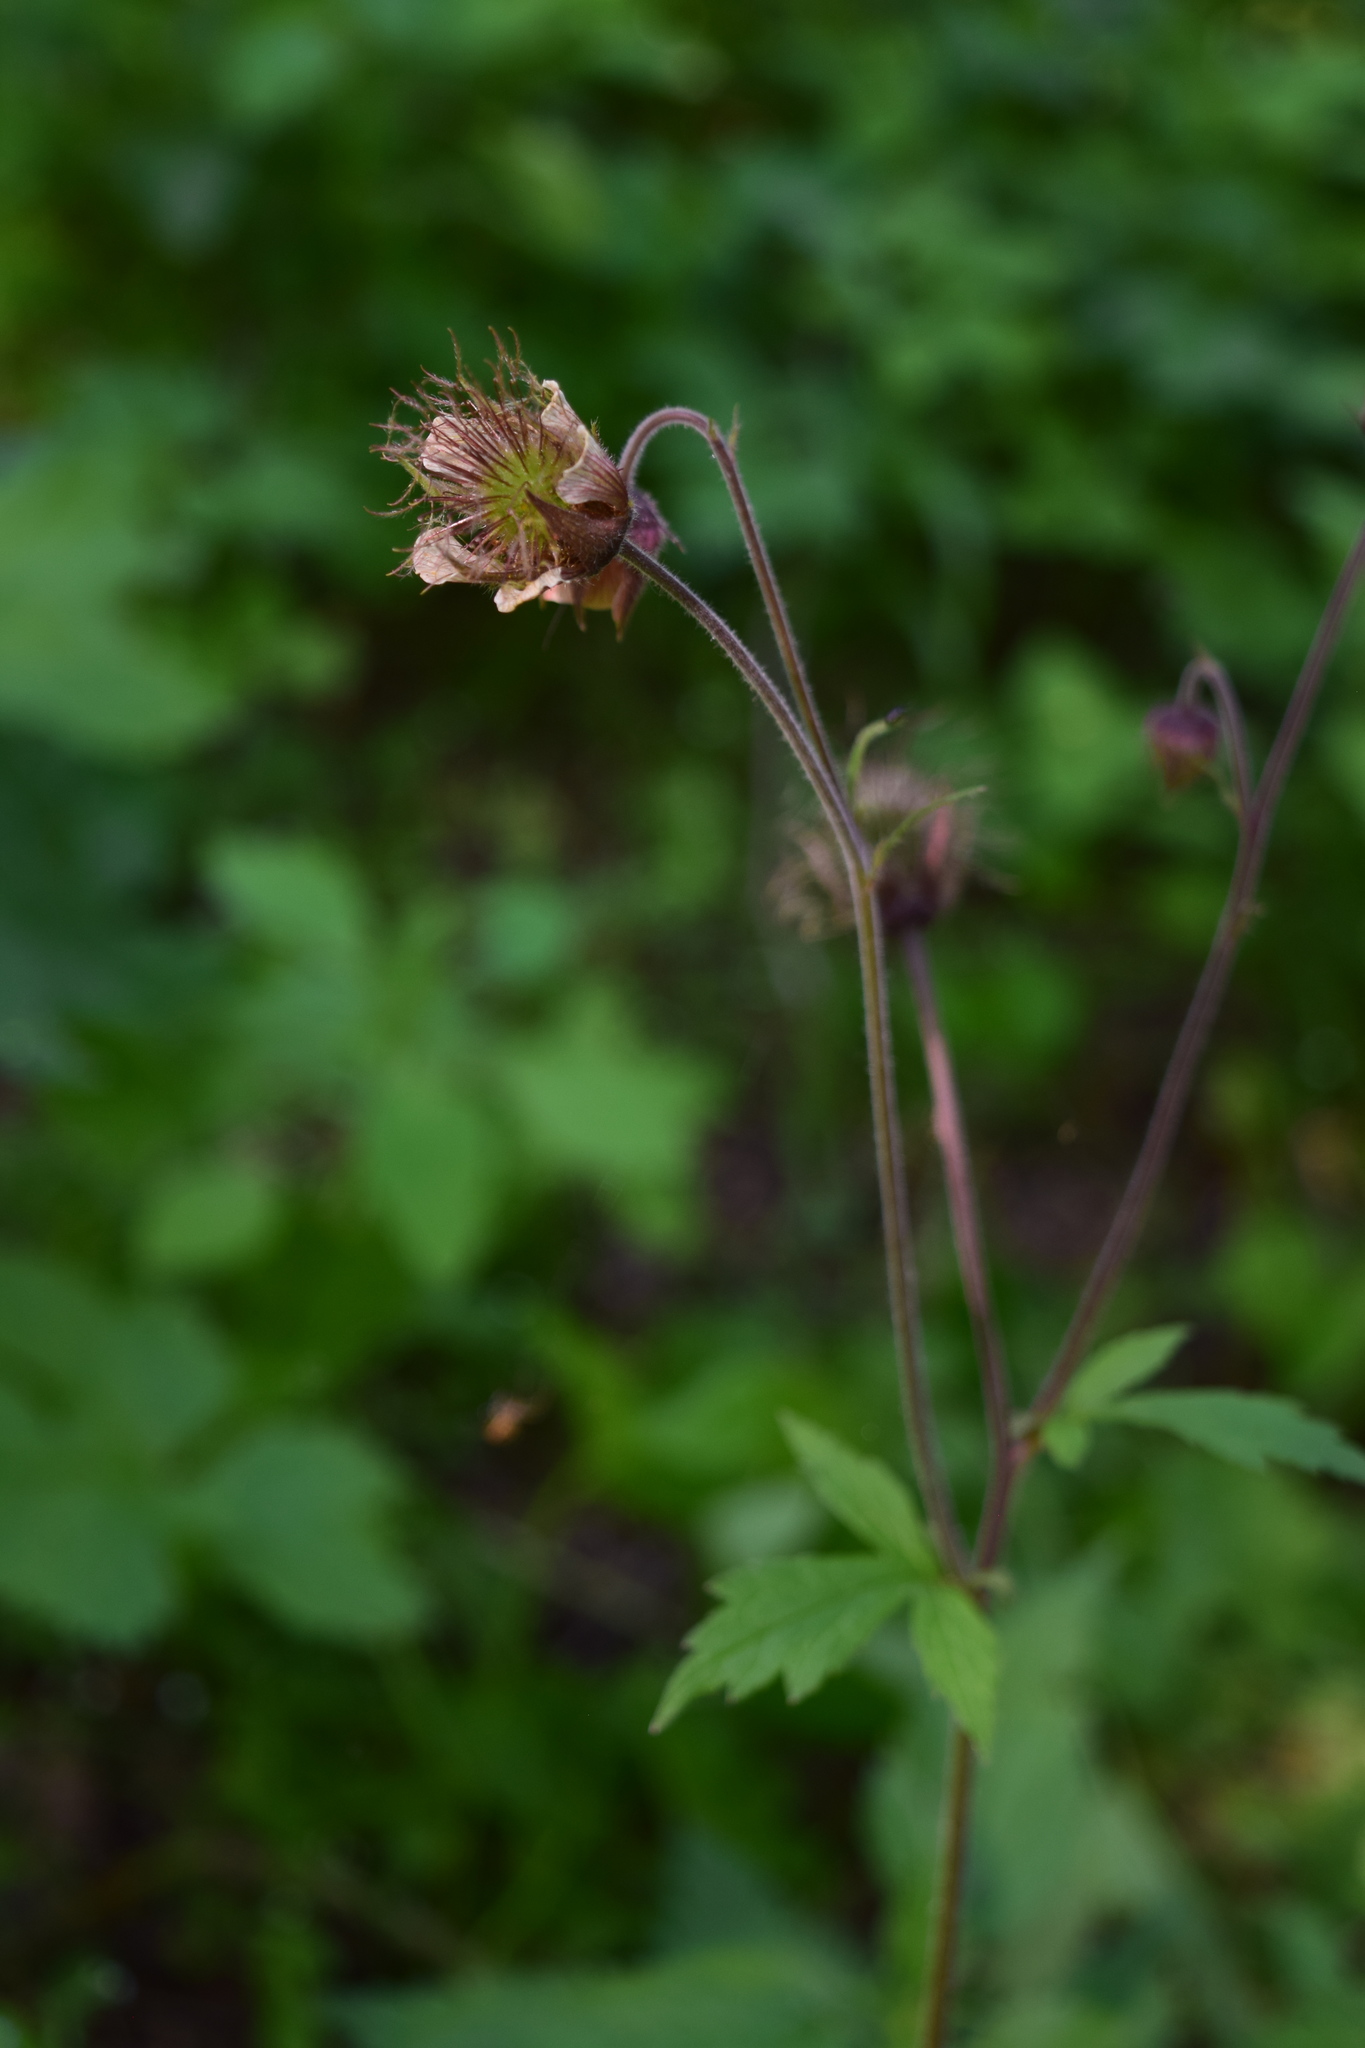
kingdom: Plantae
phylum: Tracheophyta
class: Magnoliopsida
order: Rosales
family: Rosaceae
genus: Geum
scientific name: Geum rivale
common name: Water avens
